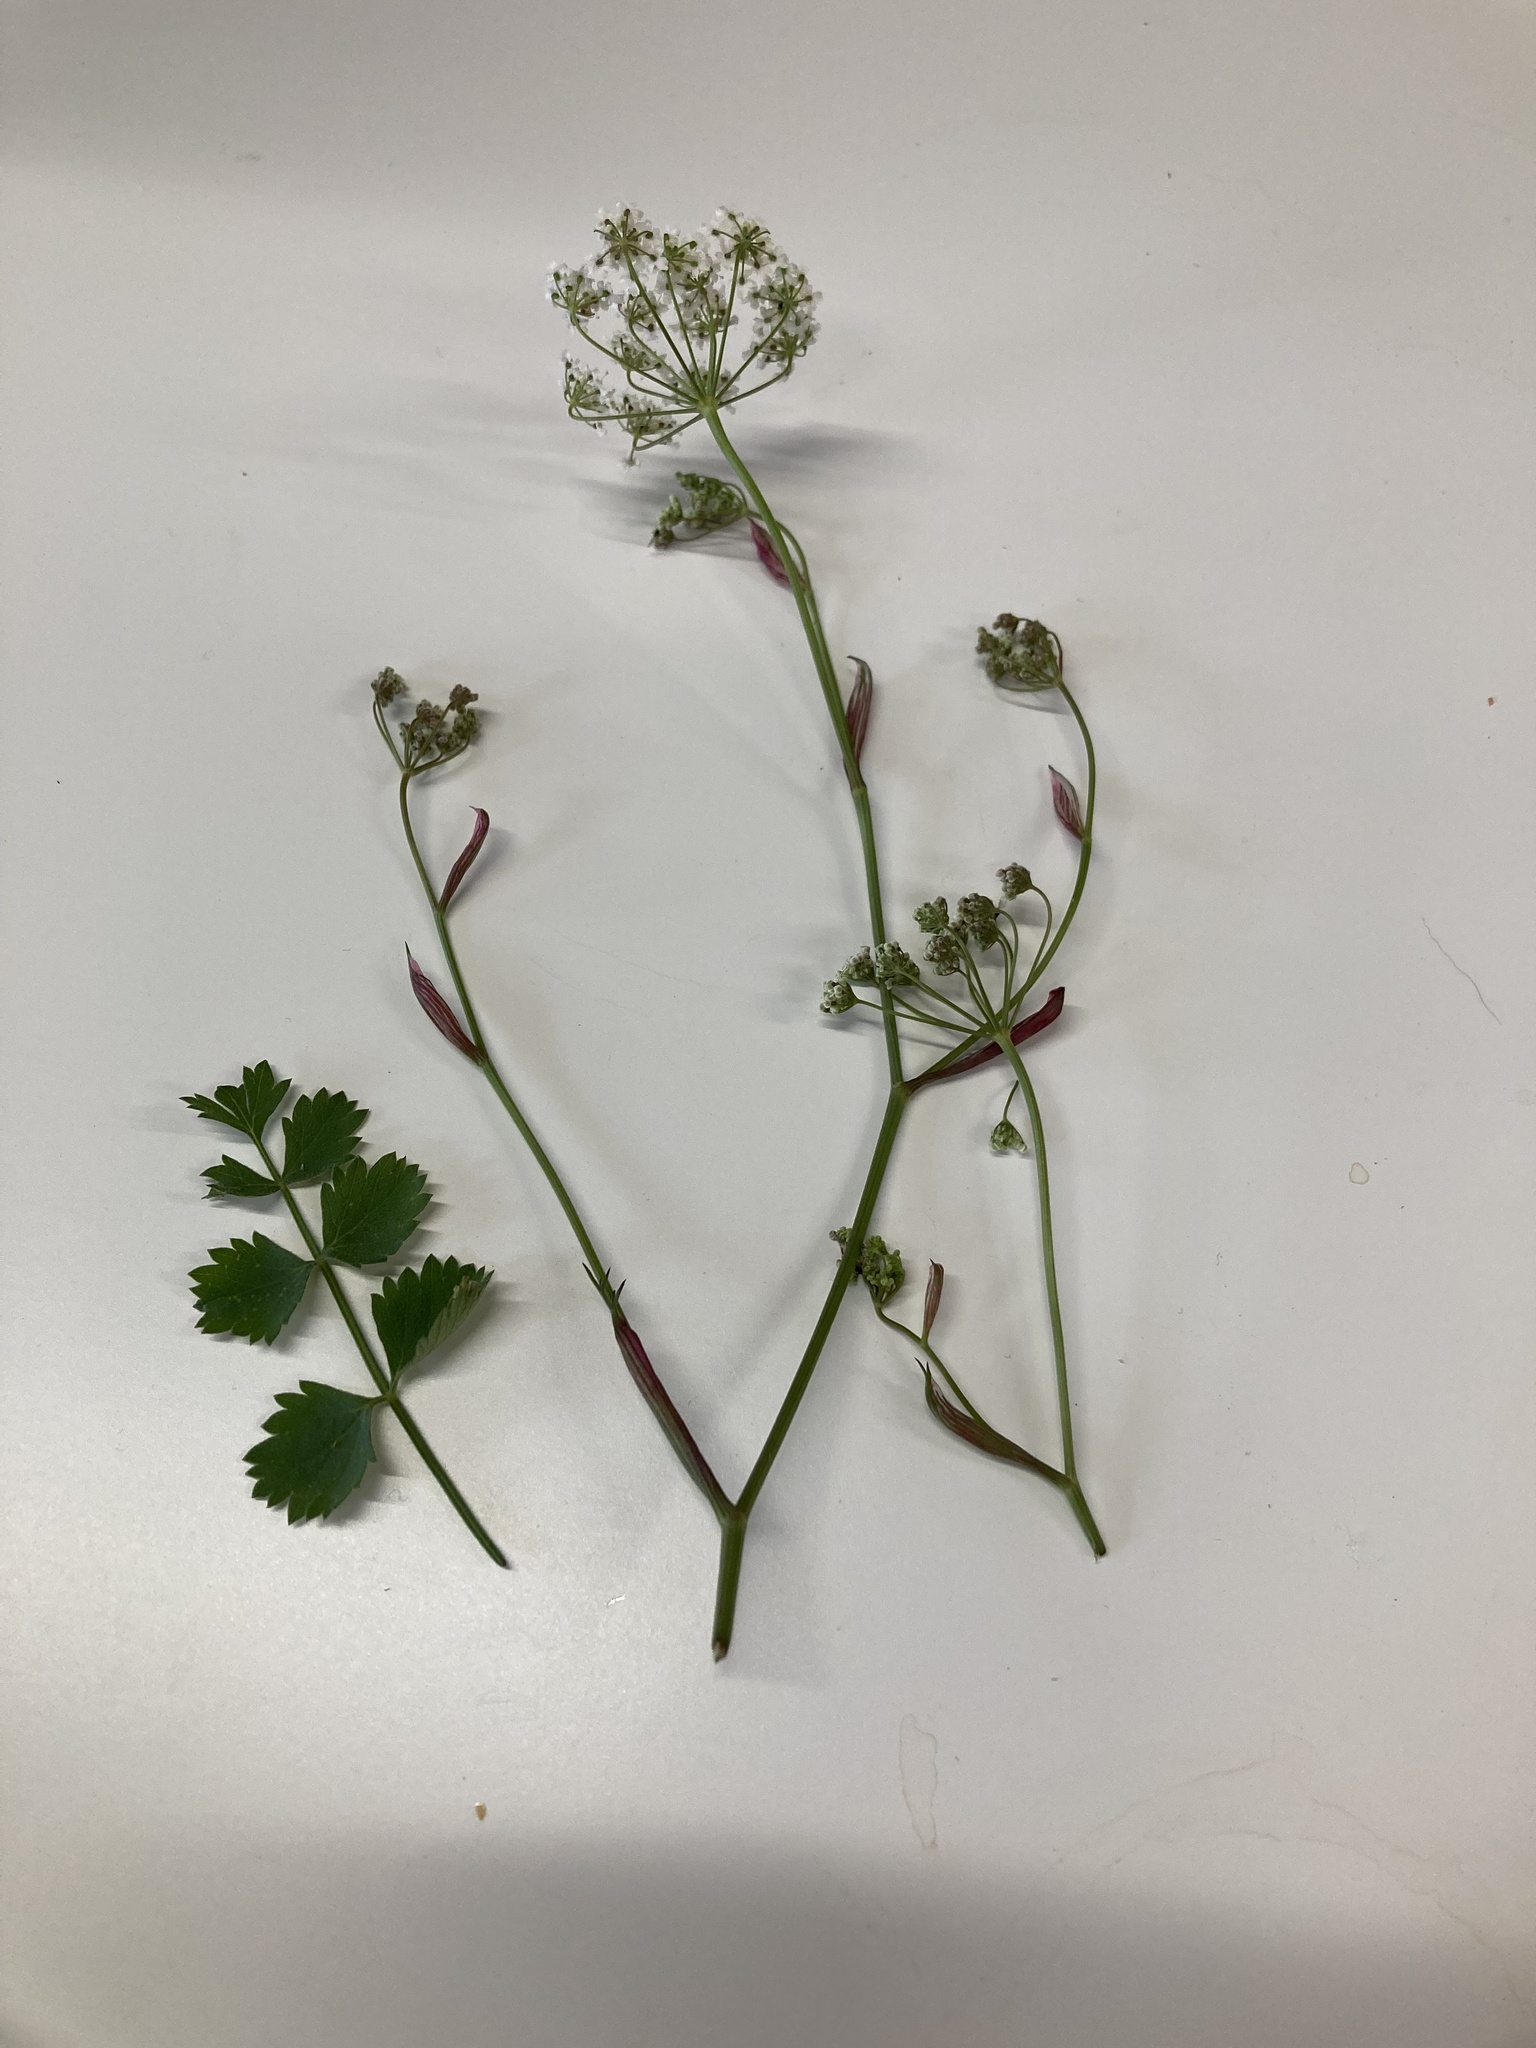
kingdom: Plantae
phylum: Tracheophyta
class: Magnoliopsida
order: Apiales
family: Apiaceae
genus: Pimpinella
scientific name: Pimpinella saxifraga
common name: Burnet-saxifrage
